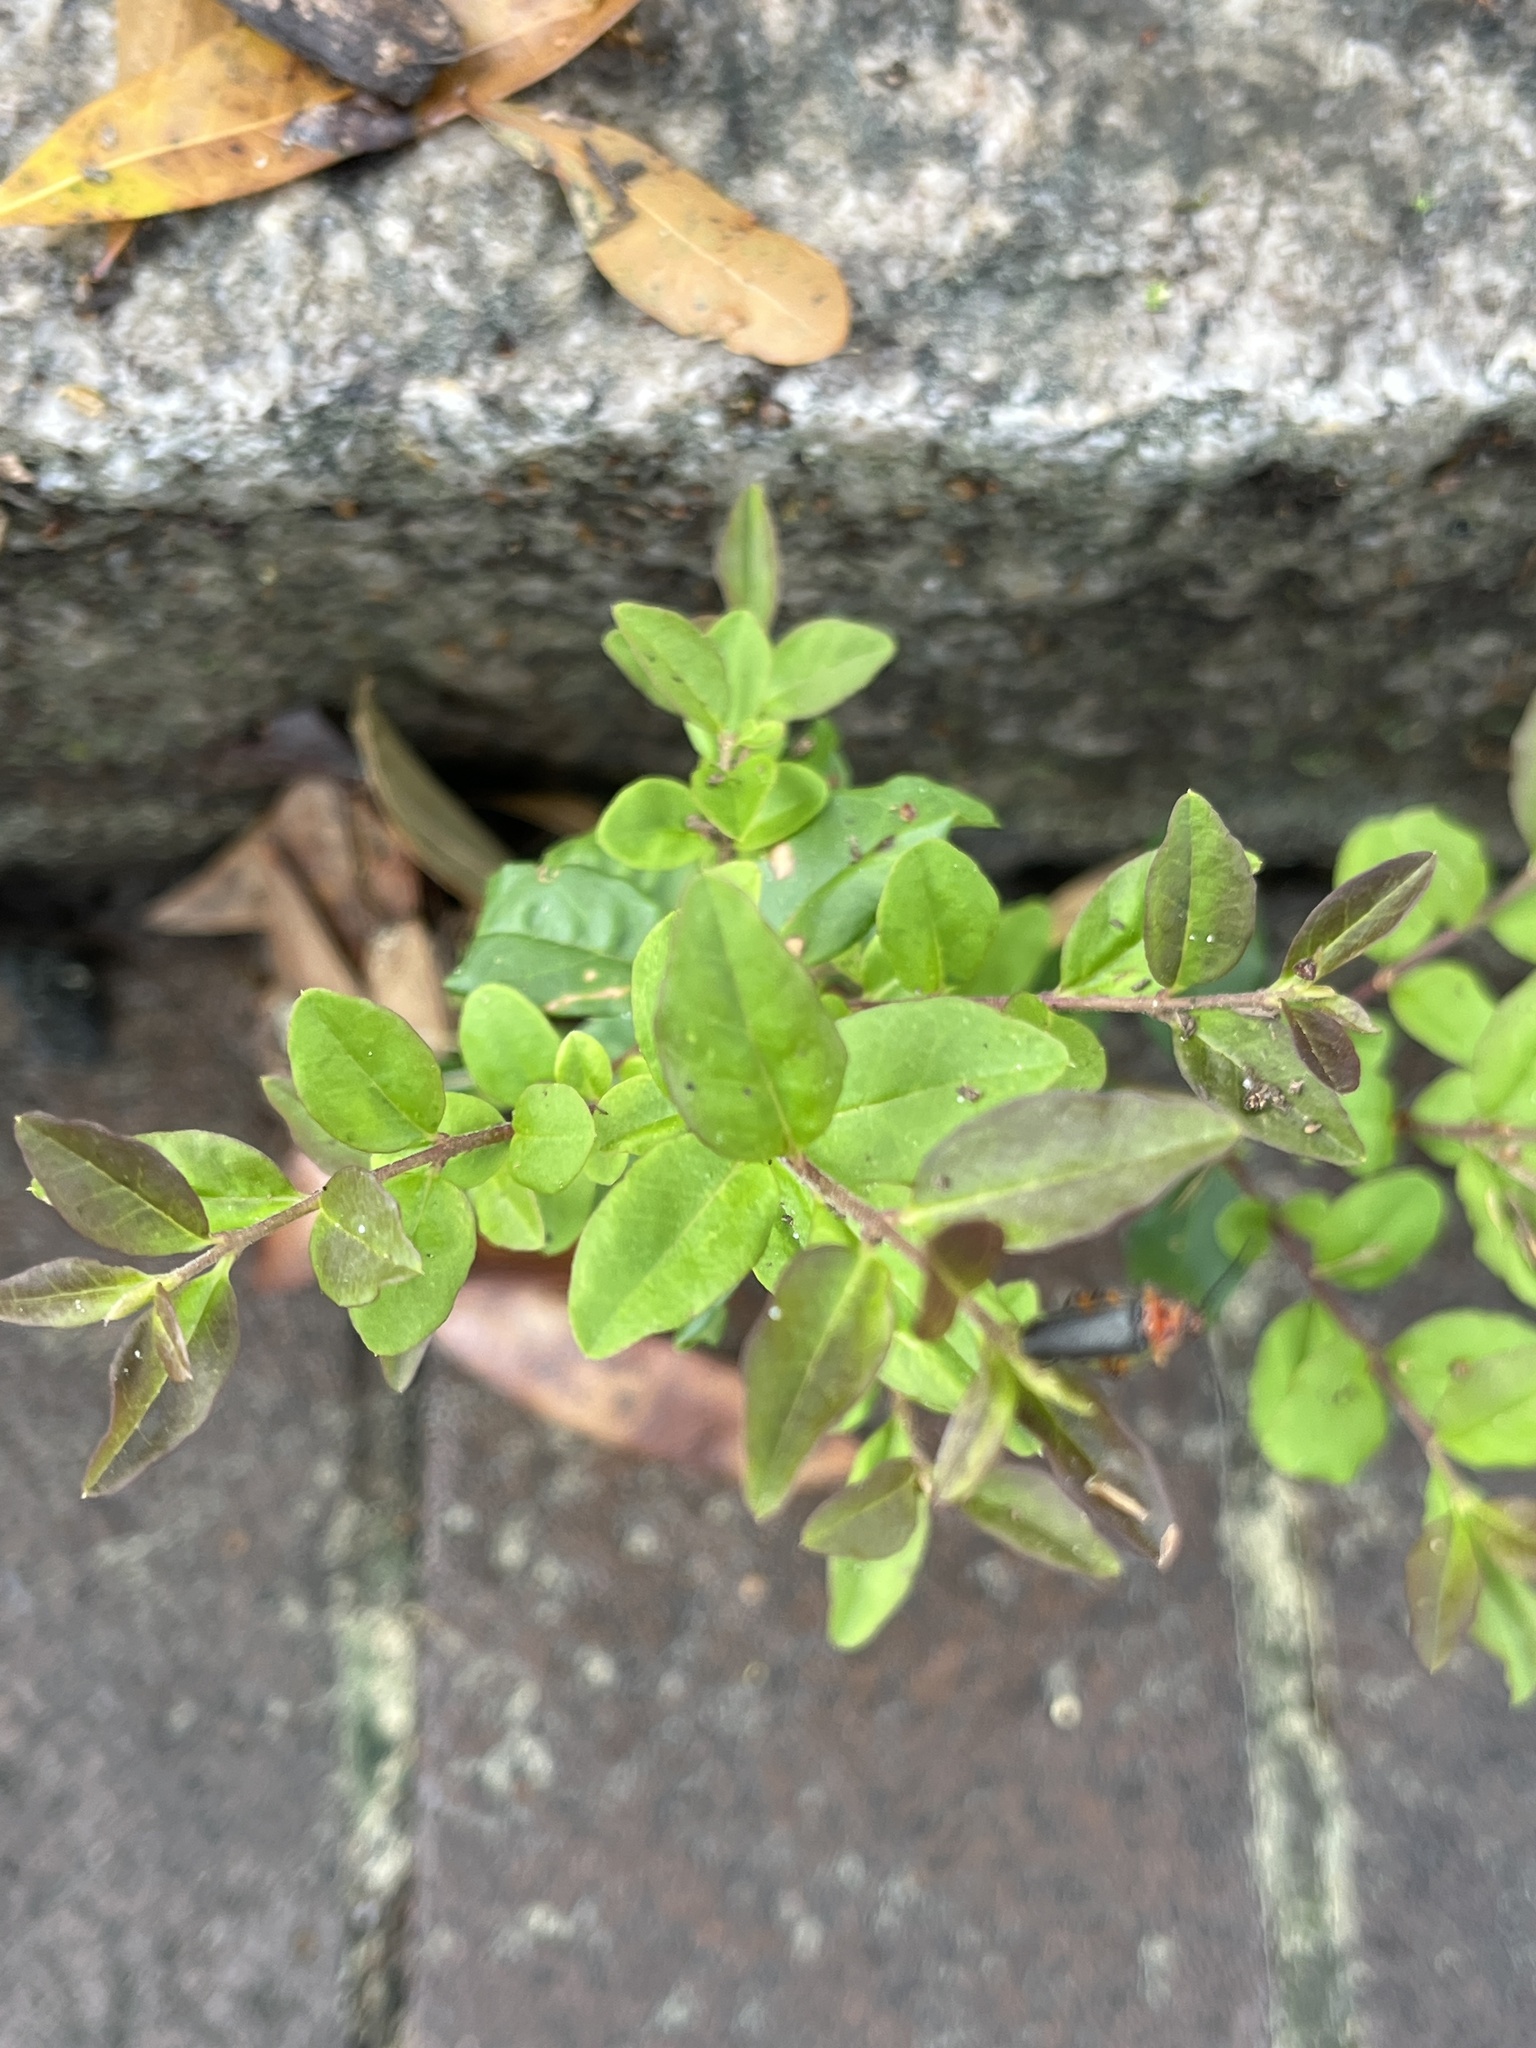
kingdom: Plantae
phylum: Tracheophyta
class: Magnoliopsida
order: Lamiales
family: Oleaceae
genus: Ligustrum
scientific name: Ligustrum sinense
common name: Chinese privet
